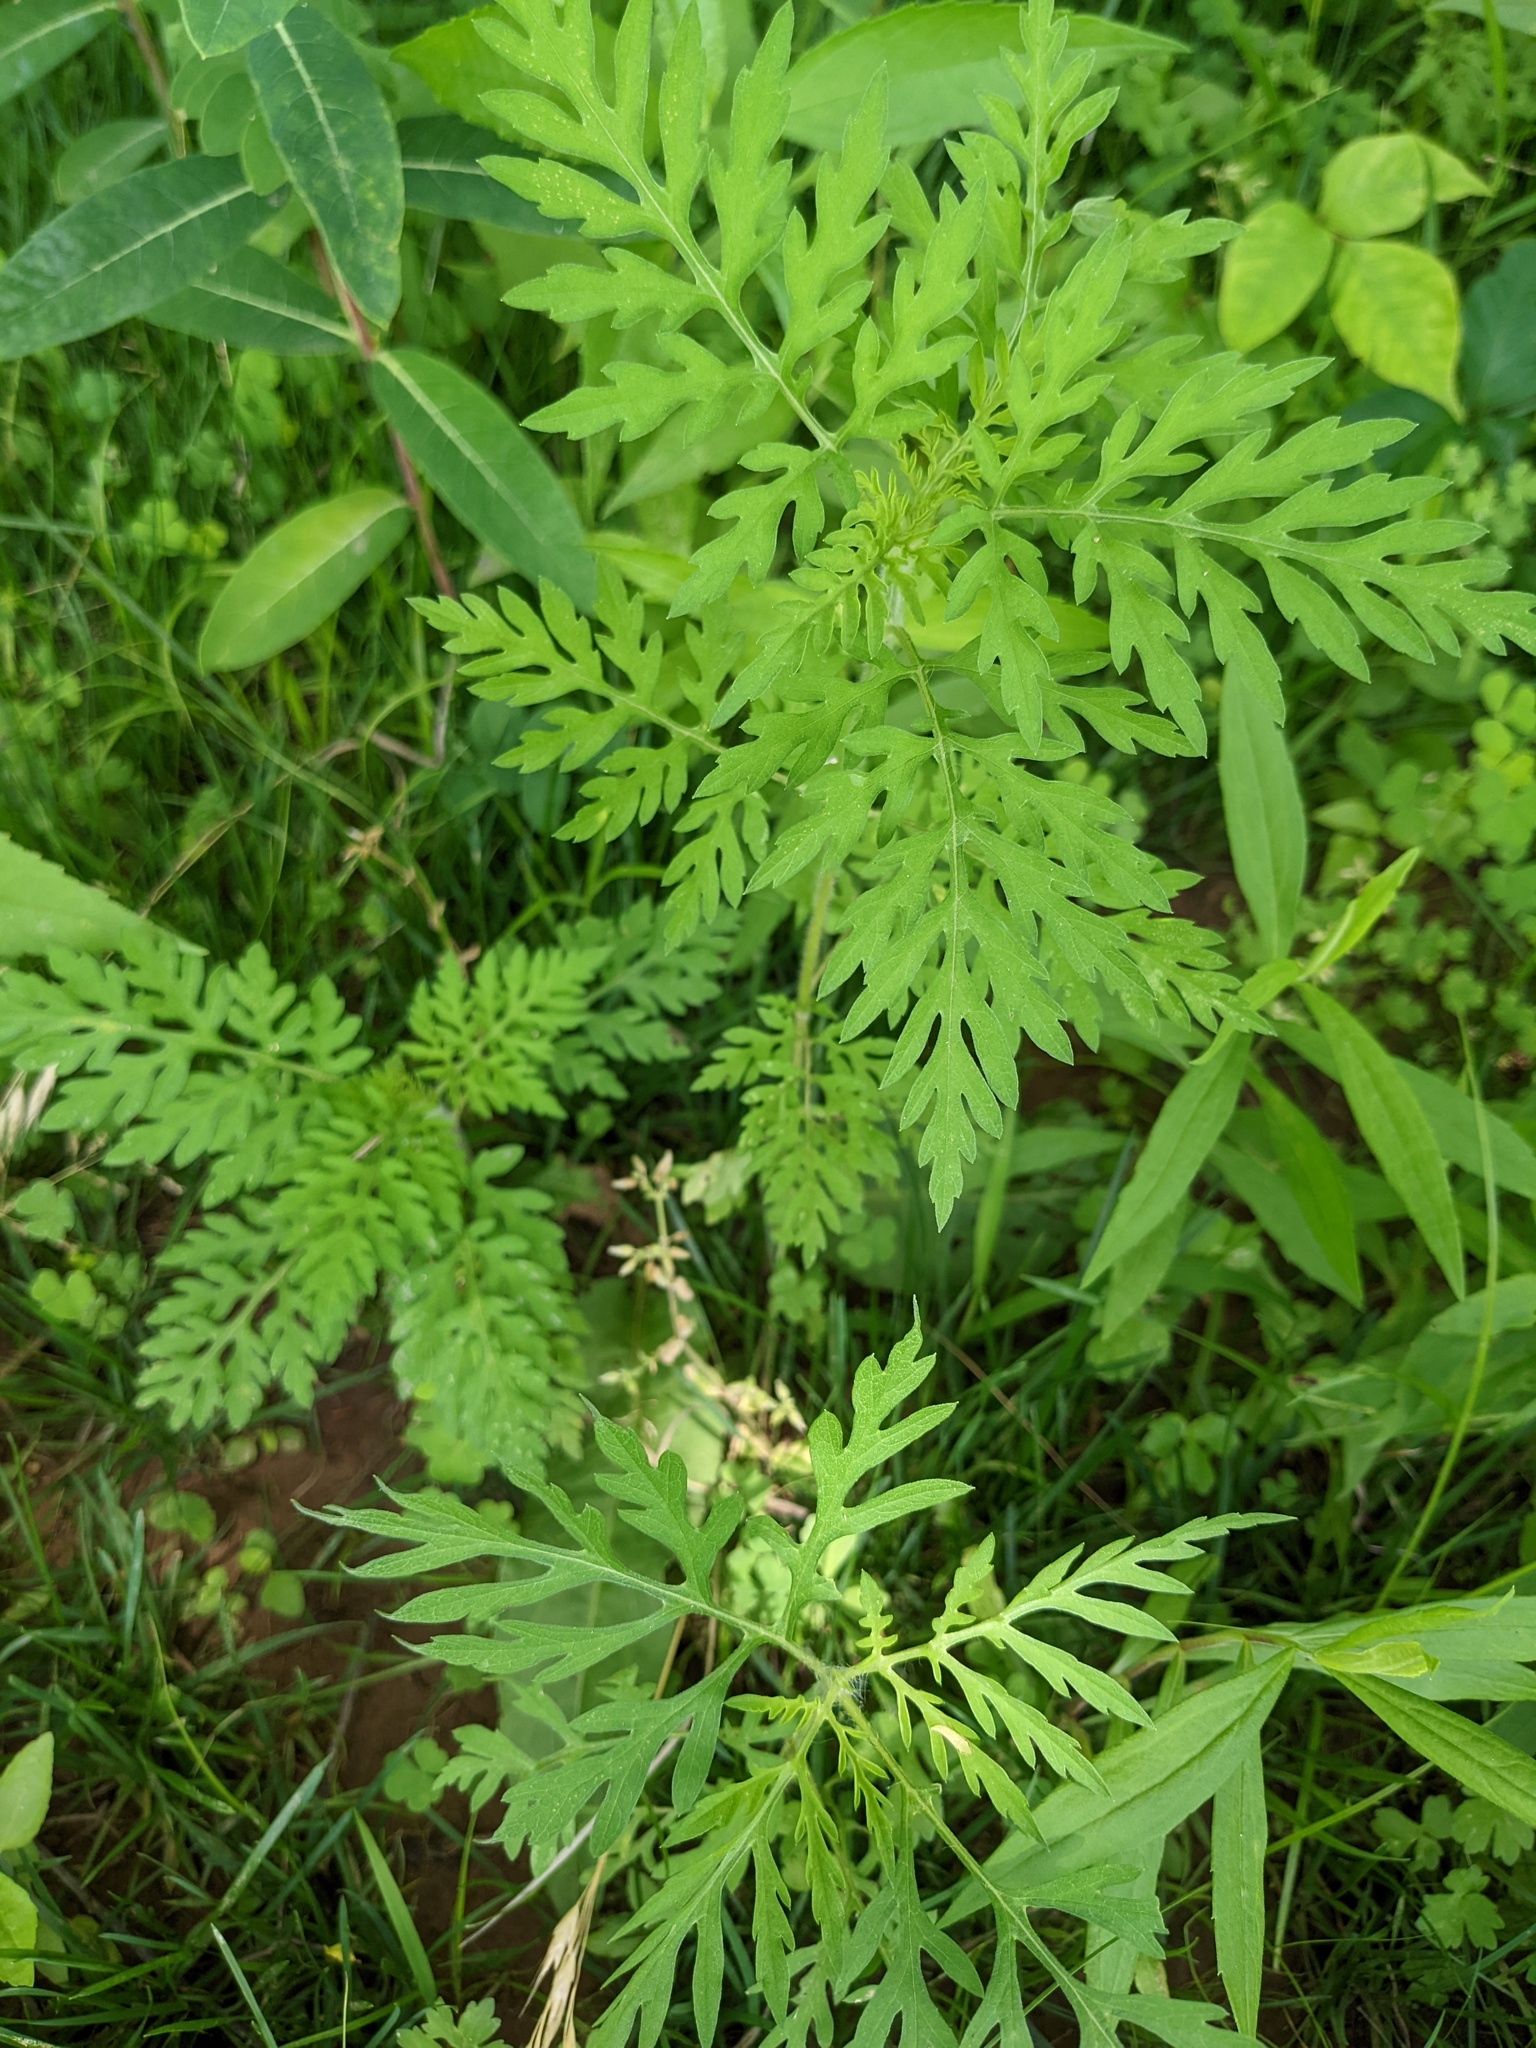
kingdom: Plantae
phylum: Tracheophyta
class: Magnoliopsida
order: Asterales
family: Asteraceae
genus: Ambrosia
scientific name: Ambrosia artemisiifolia
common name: Annual ragweed
